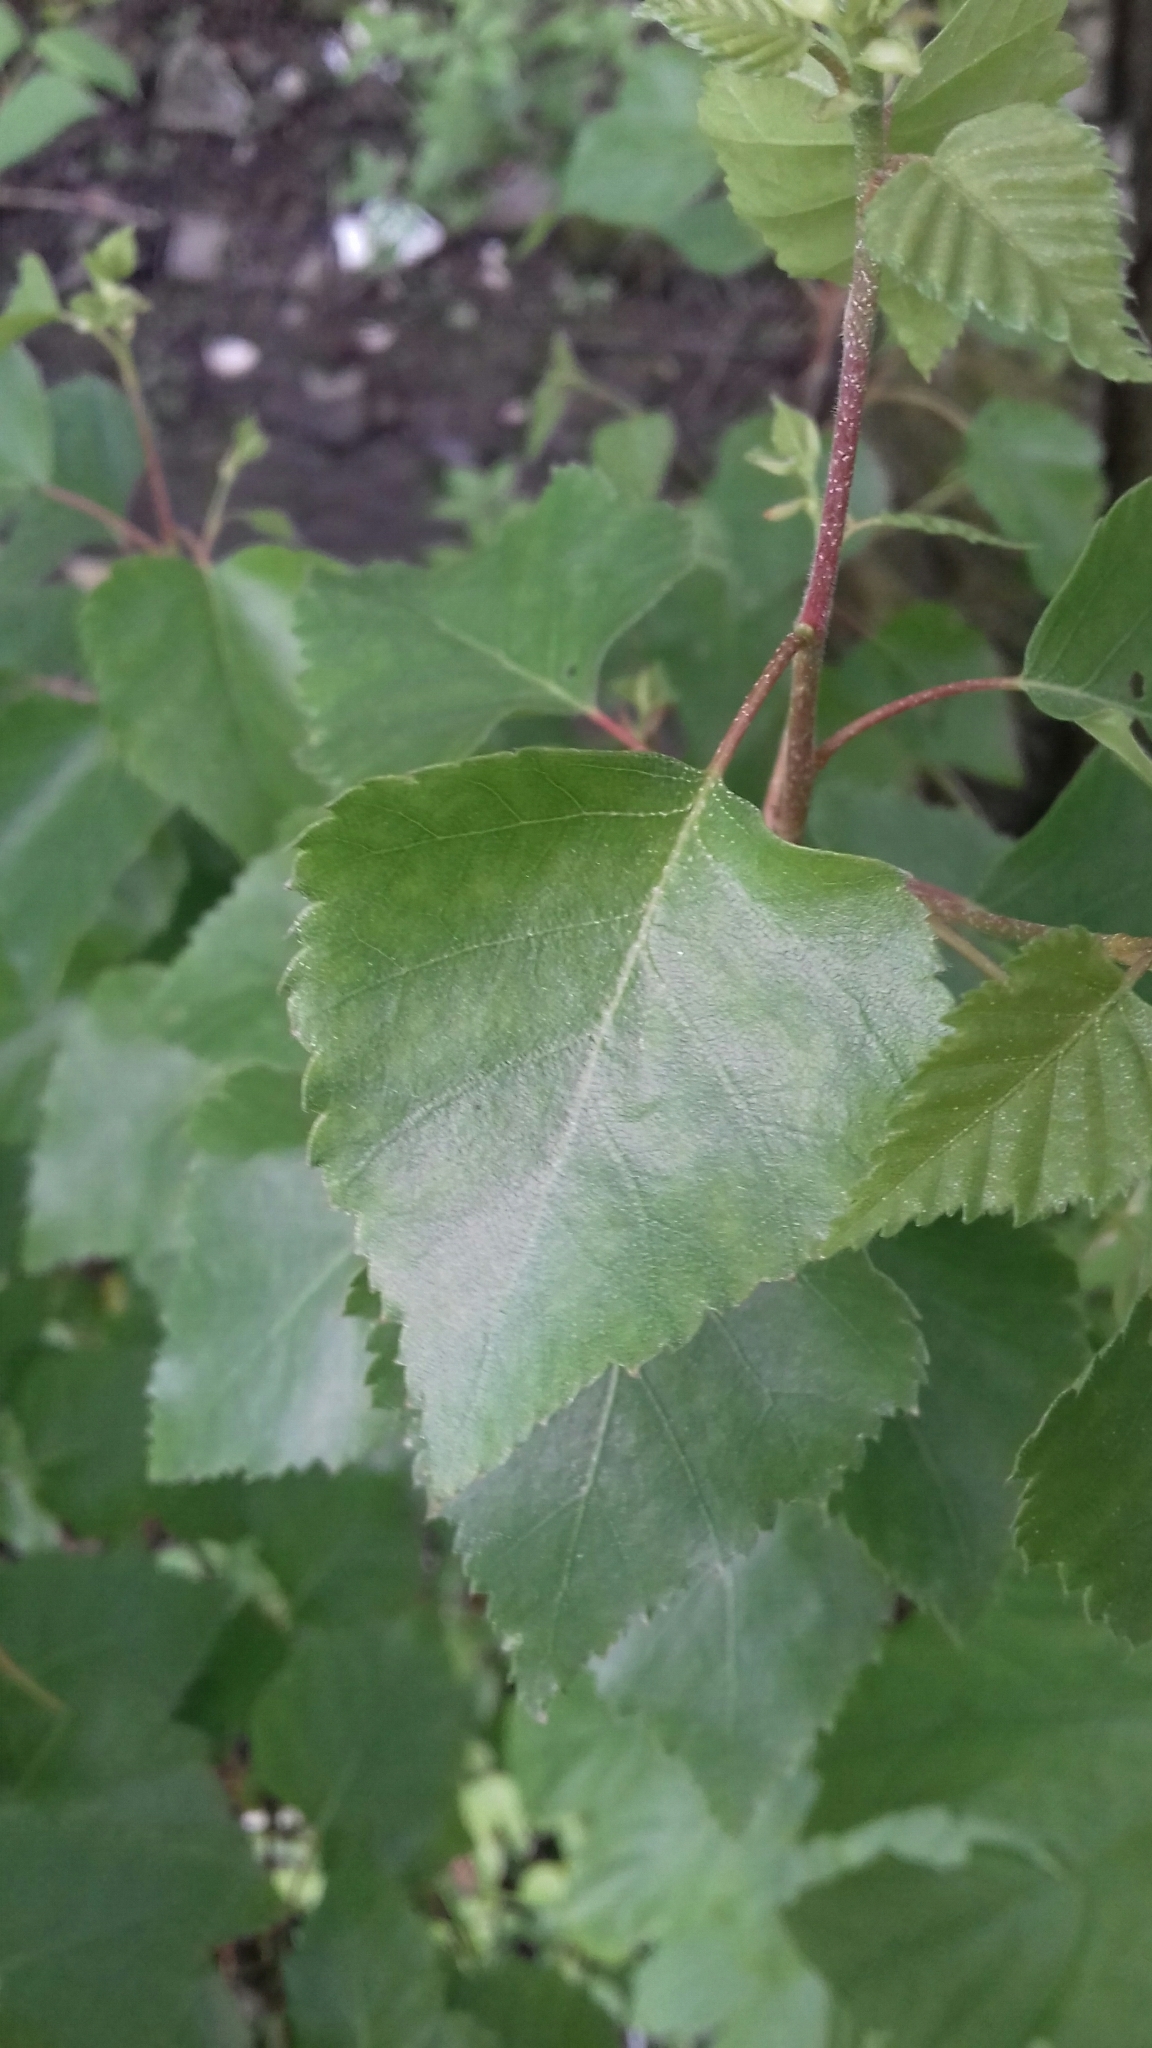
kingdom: Plantae
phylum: Tracheophyta
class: Magnoliopsida
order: Fagales
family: Betulaceae
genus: Betula
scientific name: Betula pubescens
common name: Downy birch
